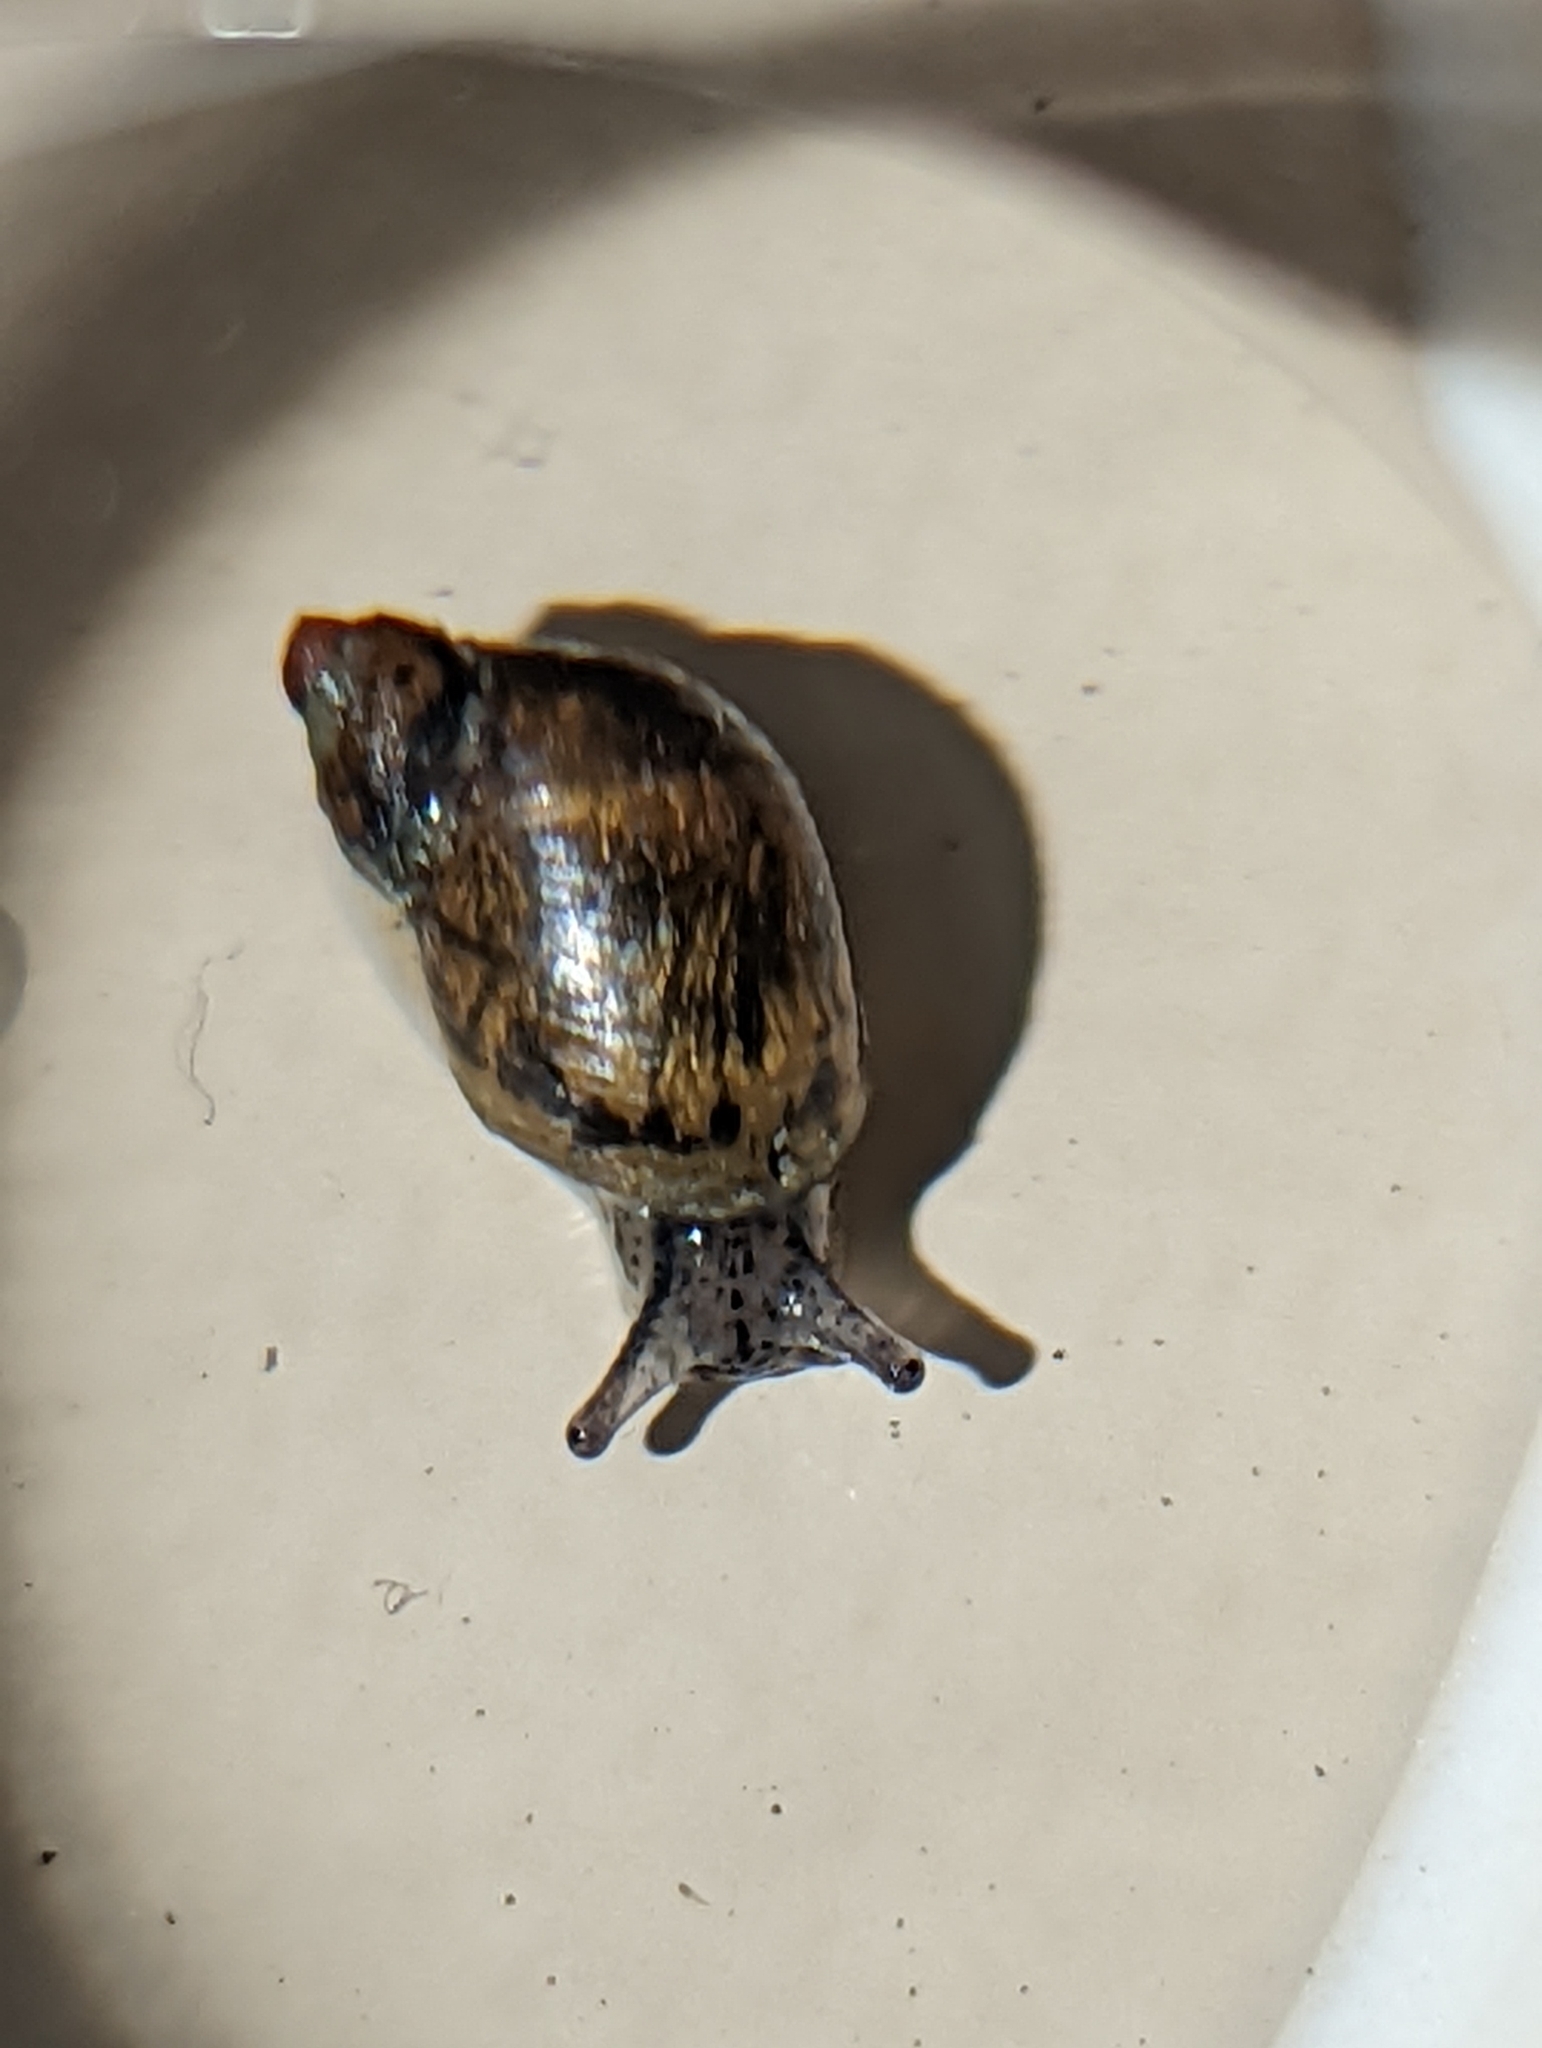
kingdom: Animalia
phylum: Mollusca
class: Gastropoda
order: Stylommatophora
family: Succineidae
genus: Novisuccinea
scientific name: Novisuccinea lyrata
